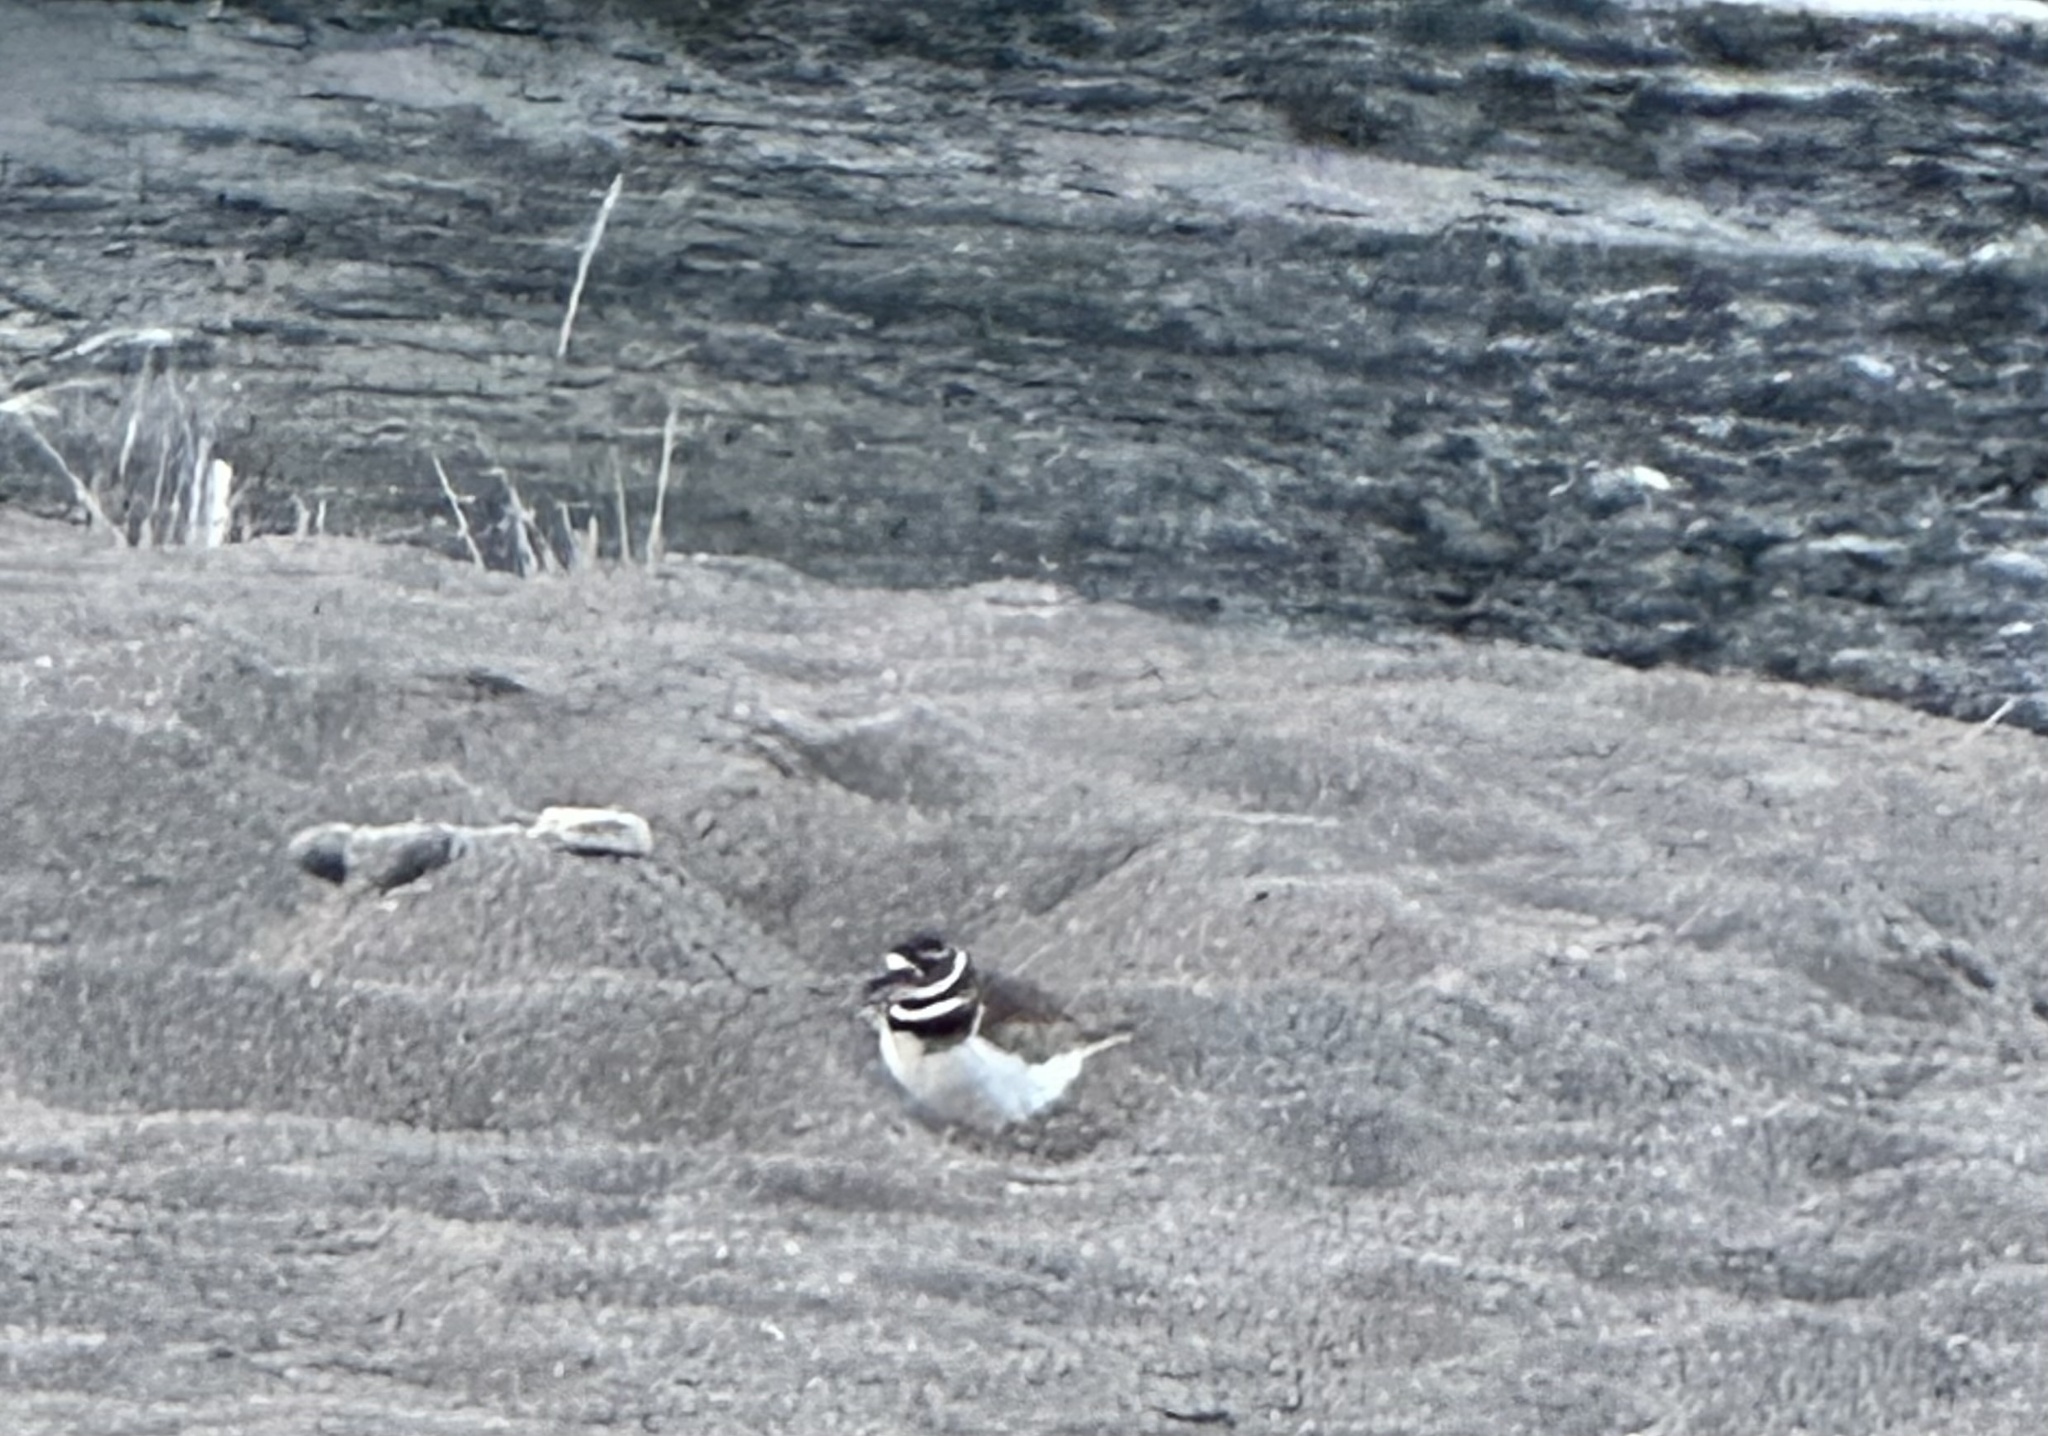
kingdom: Animalia
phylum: Chordata
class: Aves
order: Charadriiformes
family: Charadriidae
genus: Charadrius
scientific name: Charadrius vociferus
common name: Killdeer
